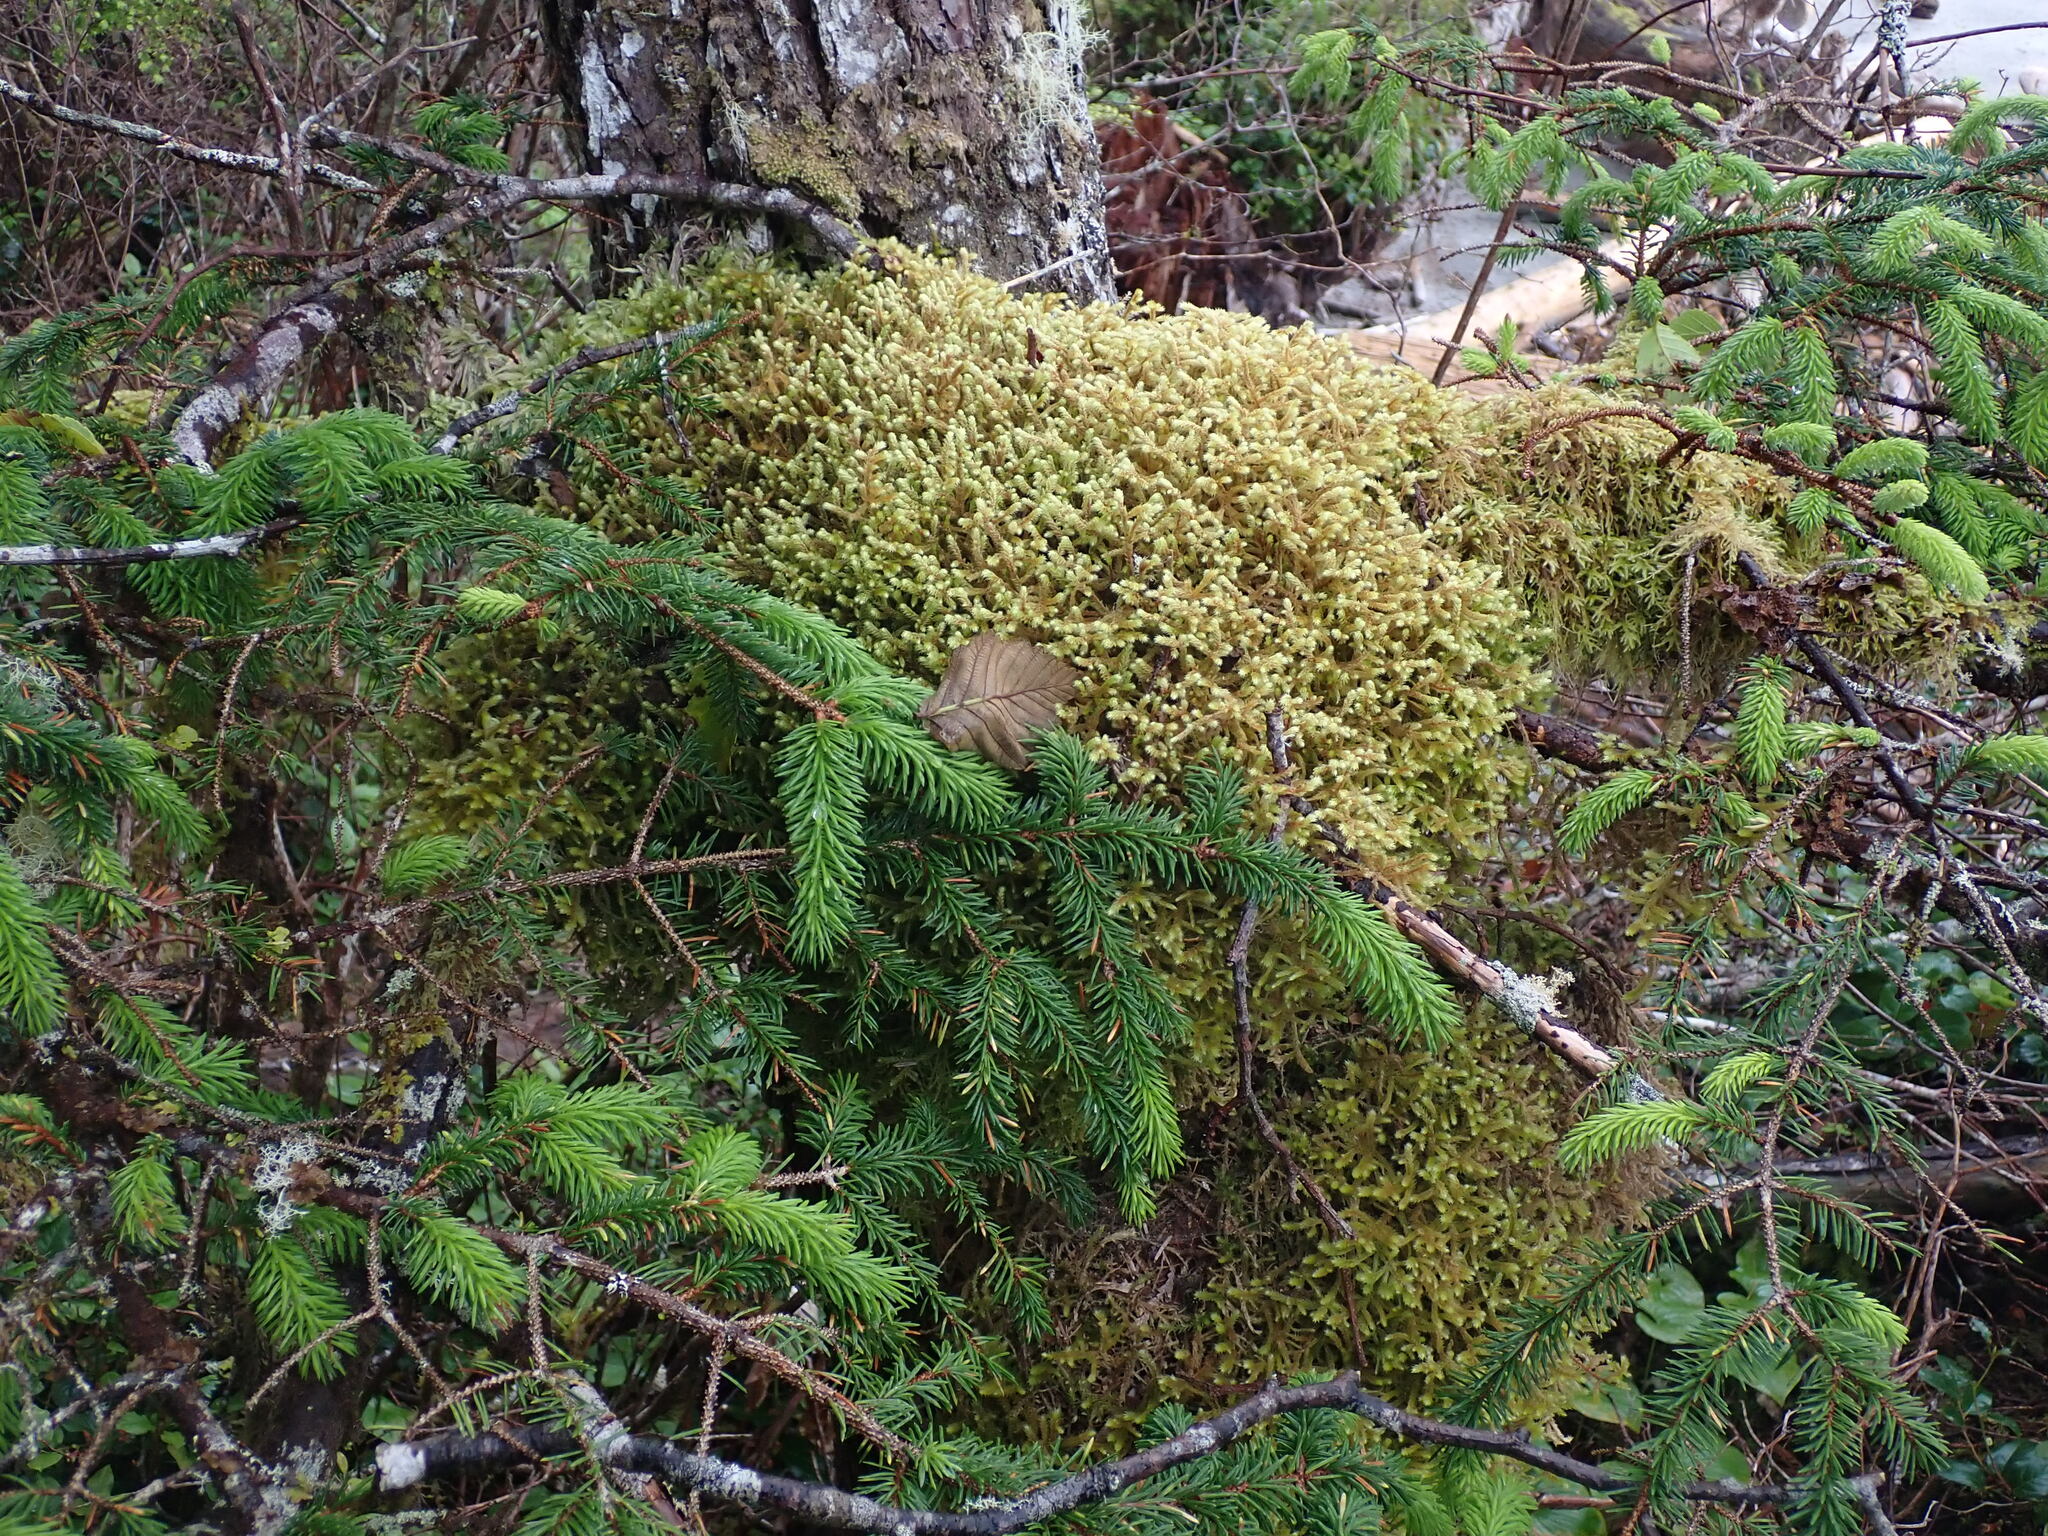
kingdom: Plantae
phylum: Bryophyta
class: Bryopsida
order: Hypnales
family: Antitrichiaceae
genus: Antitrichia
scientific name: Antitrichia curtipendula
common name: Pendulous wing-moss
